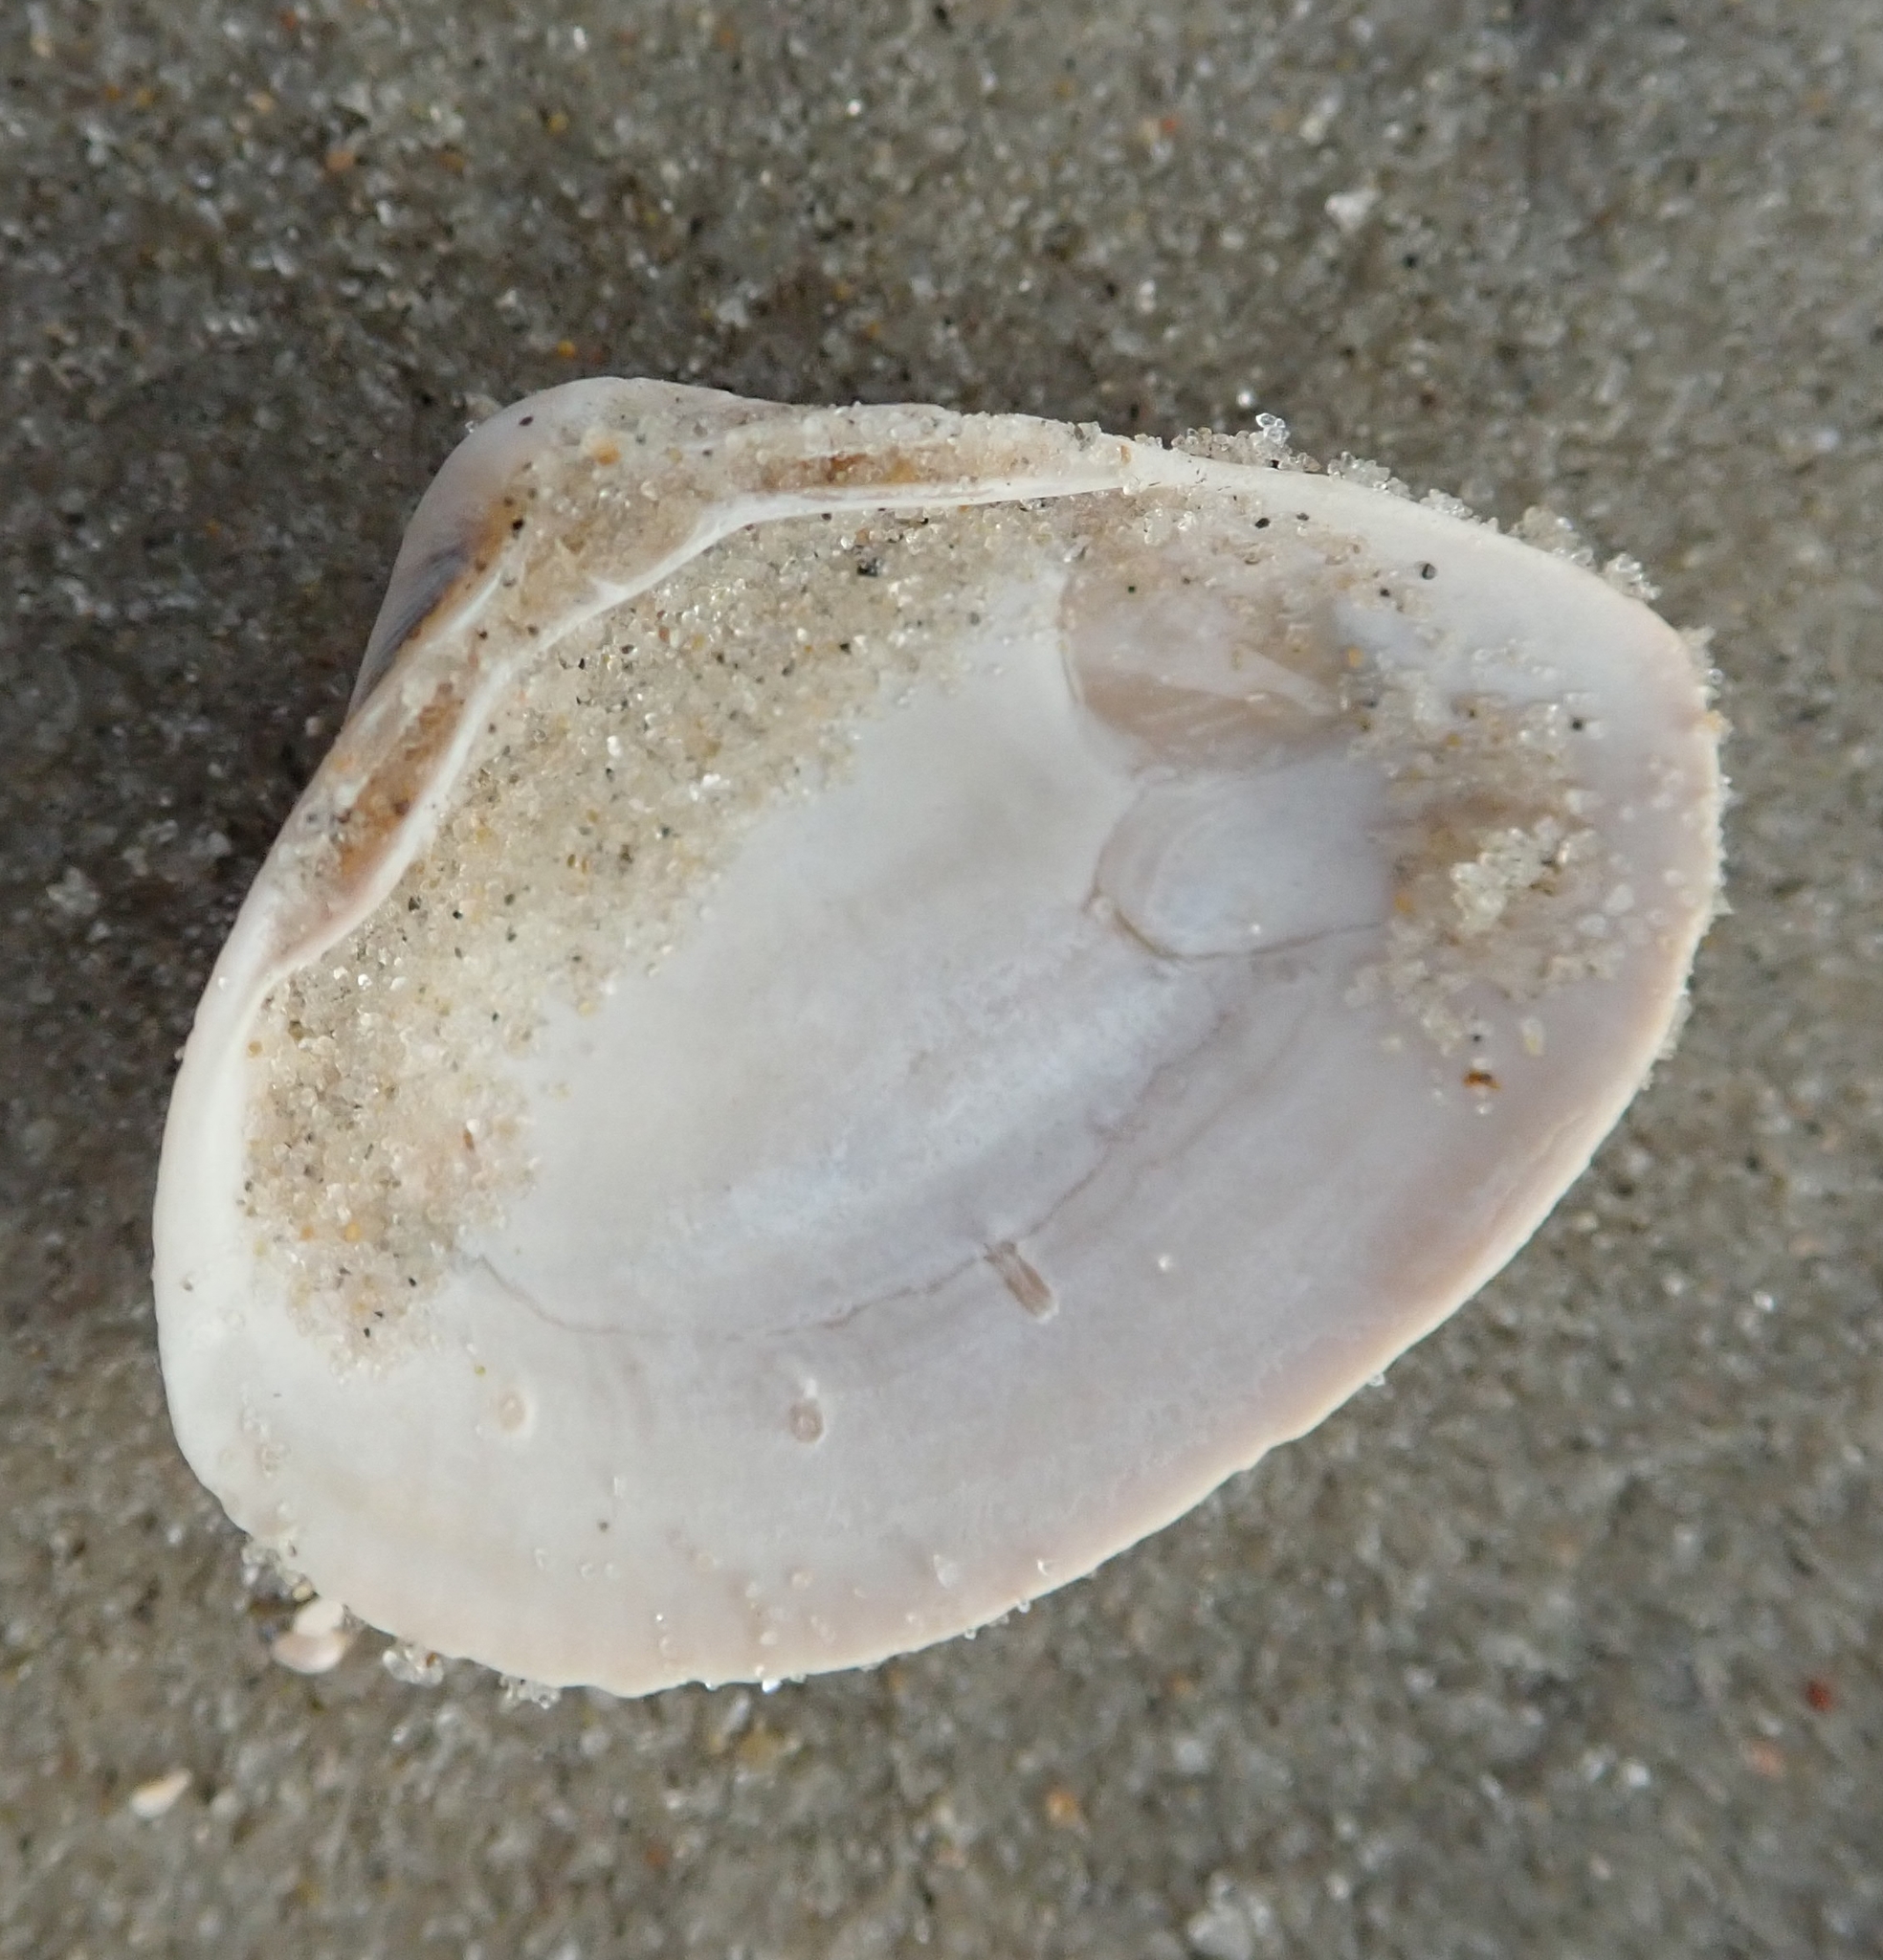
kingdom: Animalia
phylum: Mollusca
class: Bivalvia
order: Venerida
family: Mactridae
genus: Spisula
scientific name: Spisula subtruncata
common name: Cut trough shell
